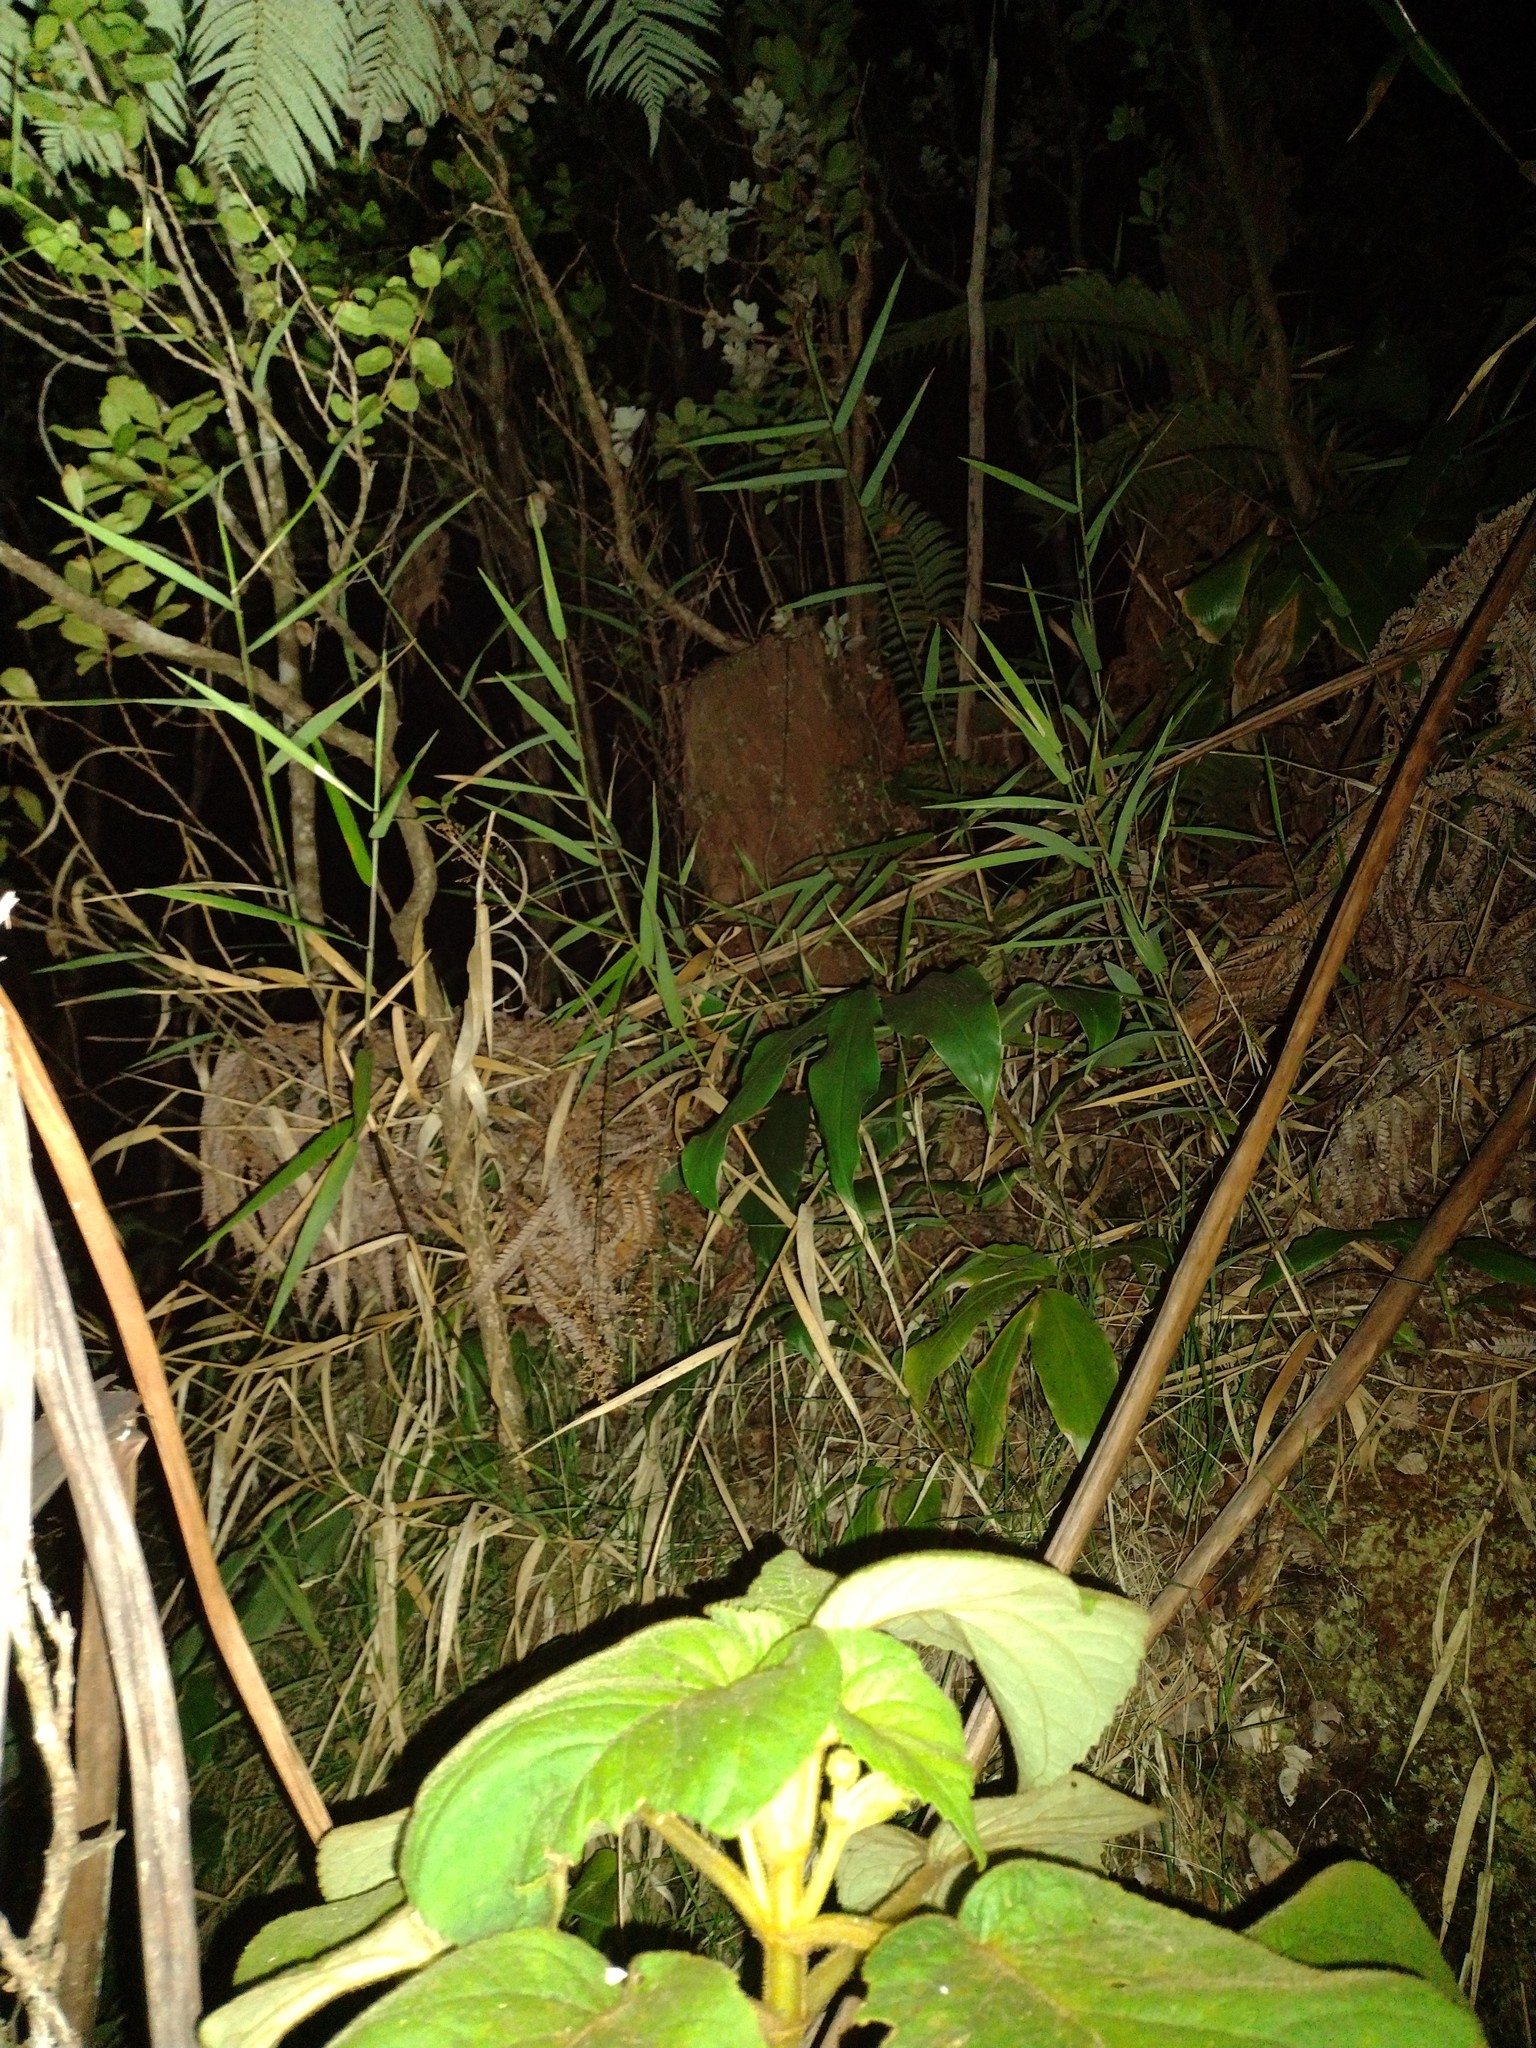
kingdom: Plantae
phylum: Tracheophyta
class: Liliopsida
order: Poales
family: Poaceae
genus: Isachne
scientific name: Isachne distichophylla
